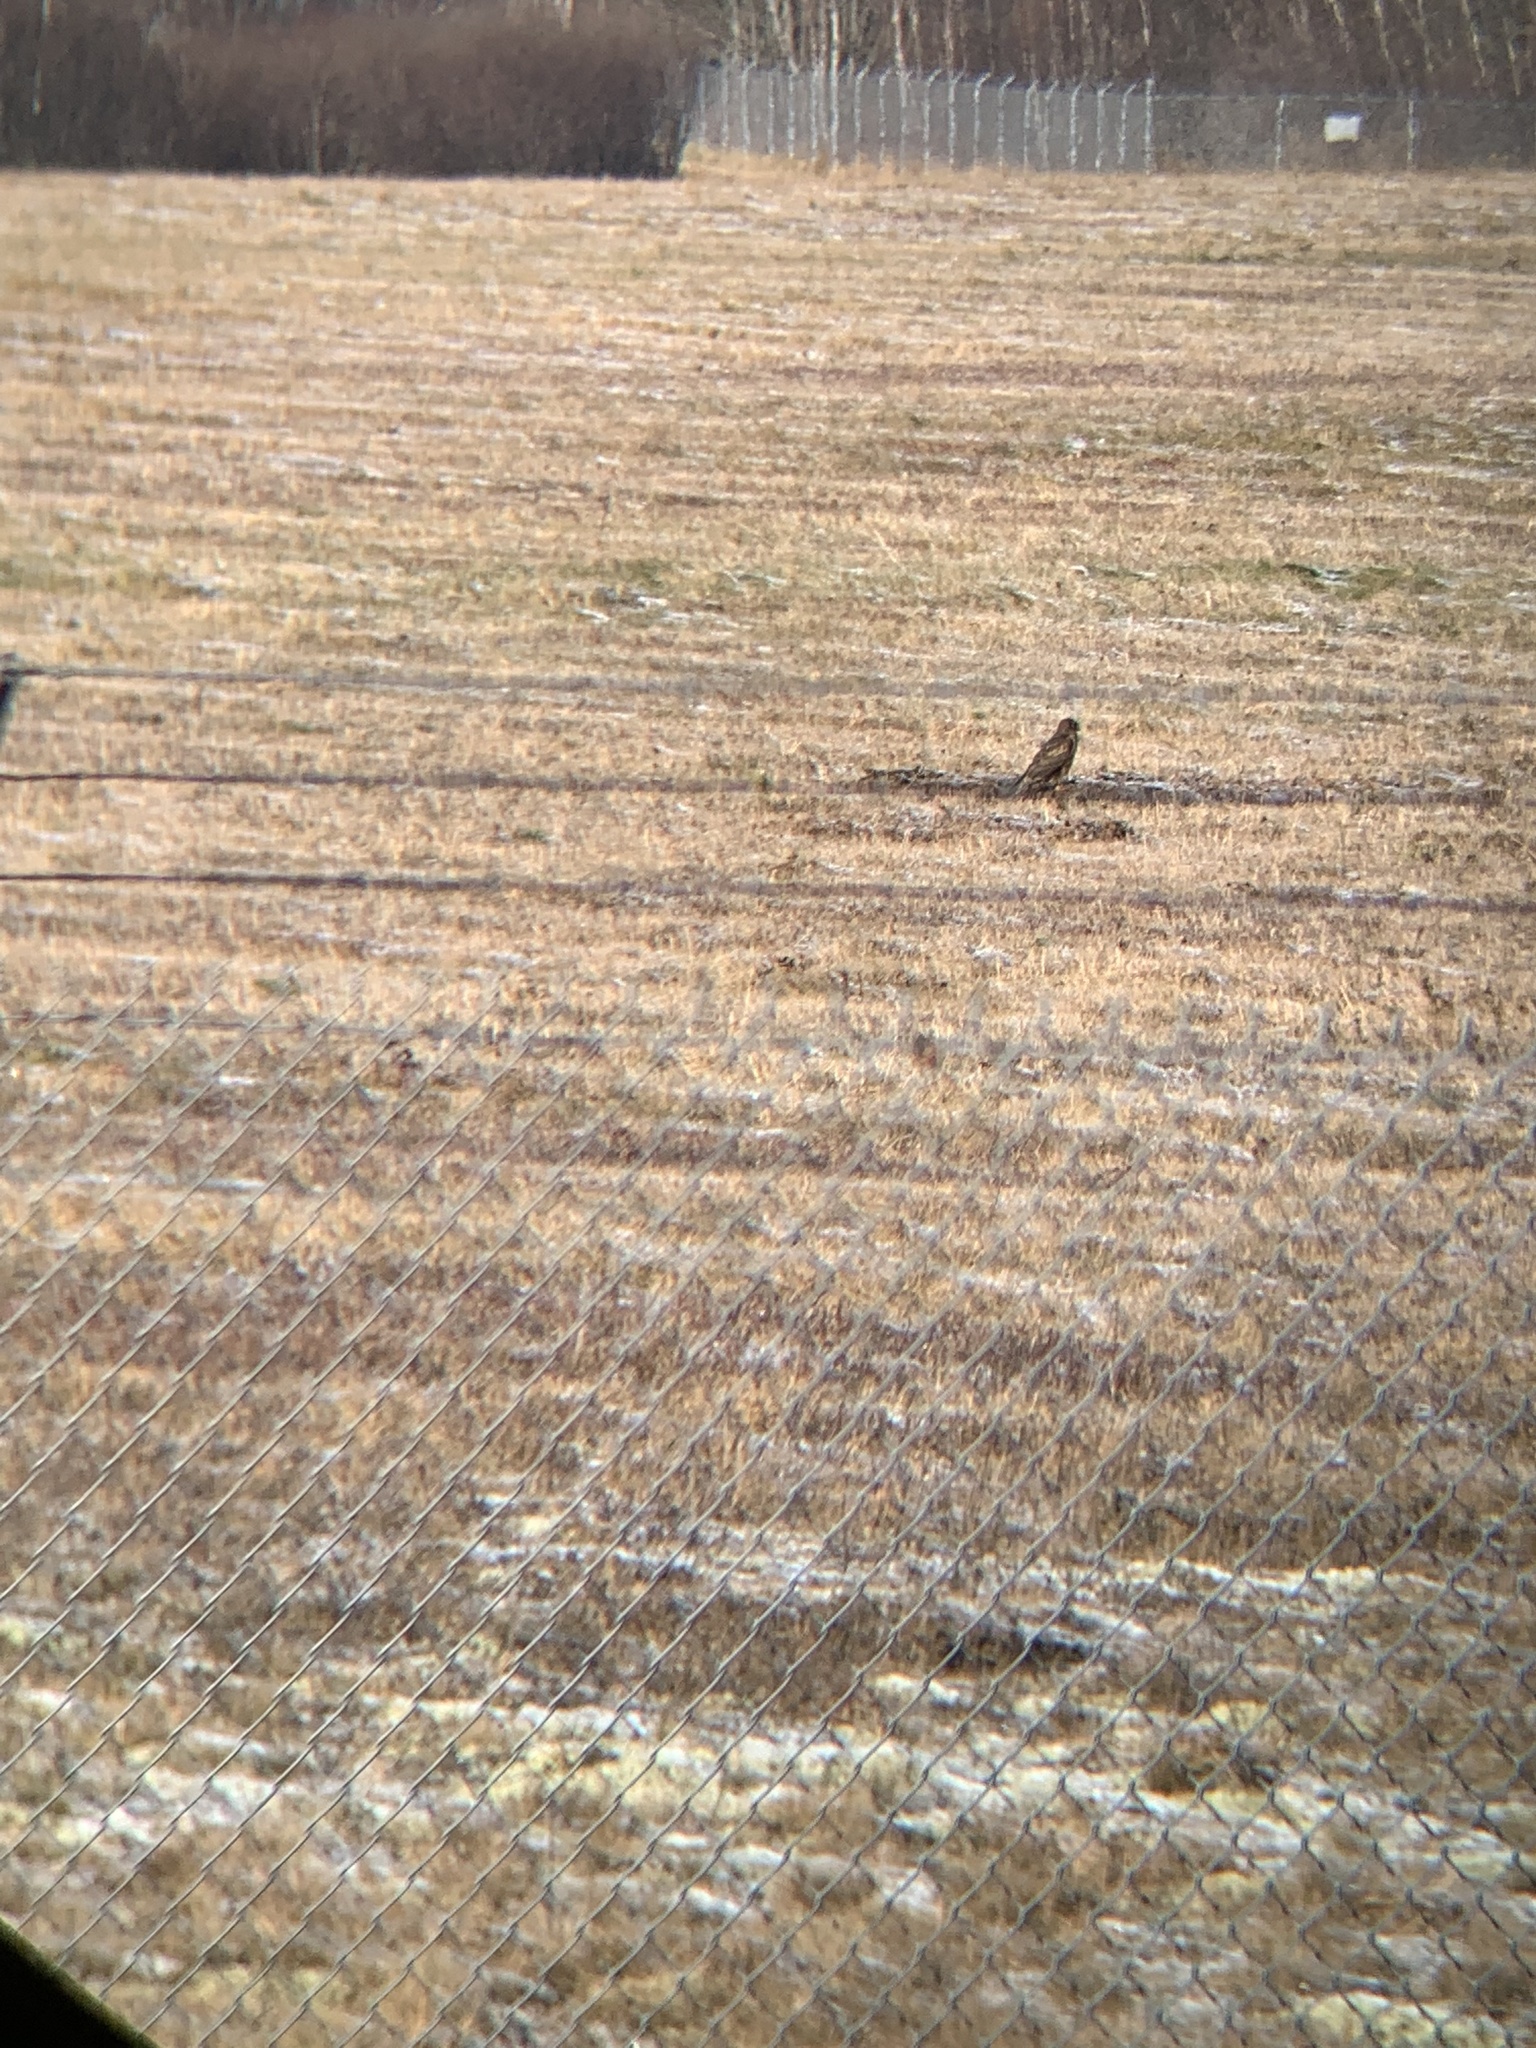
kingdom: Animalia
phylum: Chordata
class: Aves
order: Accipitriformes
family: Accipitridae
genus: Circus
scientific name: Circus cyaneus
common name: Hen harrier
